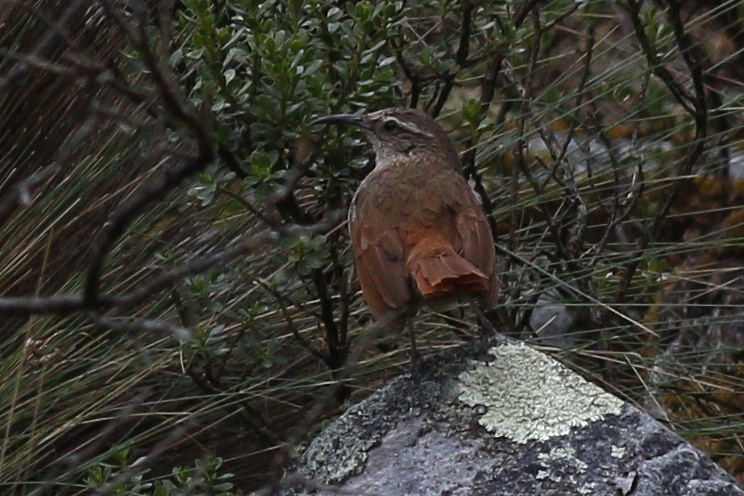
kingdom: Animalia
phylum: Chordata
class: Aves
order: Passeriformes
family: Furnariidae
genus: Upucerthia
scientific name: Upucerthia serrana
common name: Striated earthcreeper
